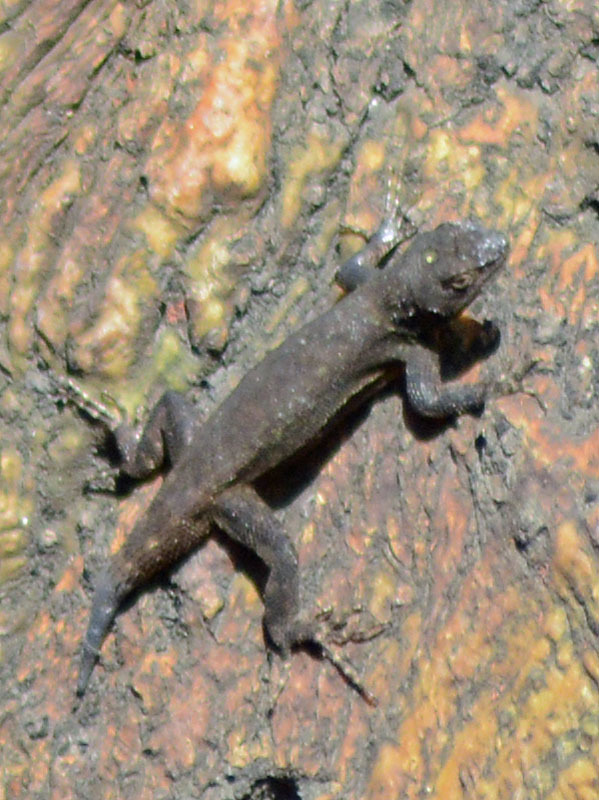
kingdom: Animalia
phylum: Chordata
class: Squamata
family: Phrynosomatidae
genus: Sceloporus
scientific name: Sceloporus grammicus
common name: Mesquite lizard
